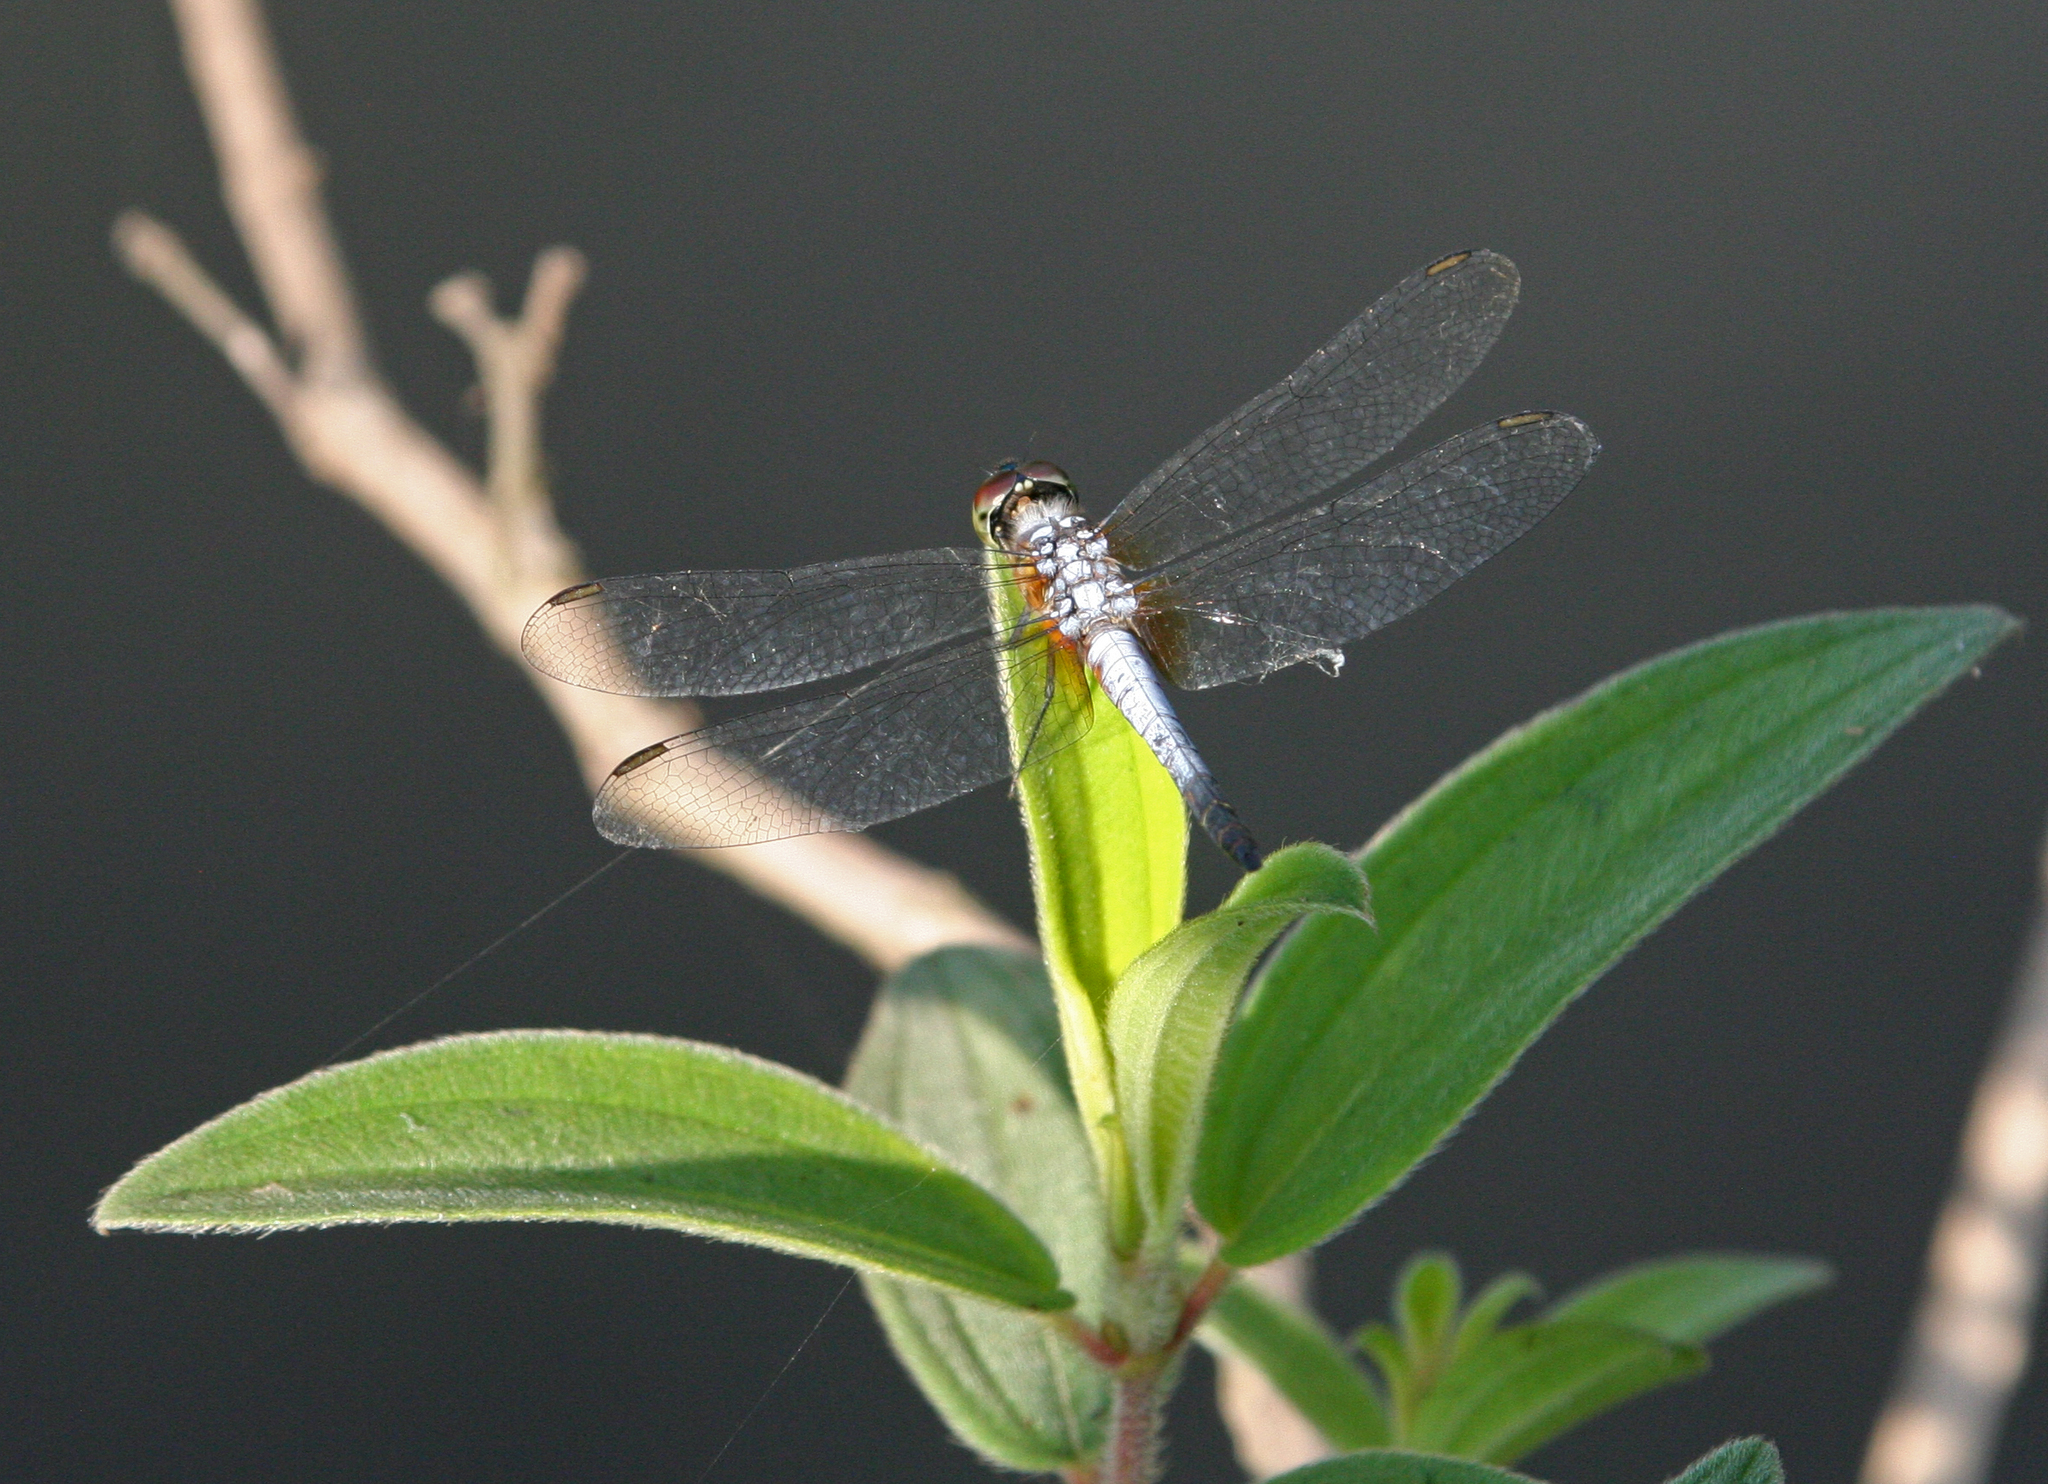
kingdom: Animalia
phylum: Arthropoda
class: Insecta
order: Odonata
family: Libellulidae
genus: Brachydiplax
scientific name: Brachydiplax chalybea
